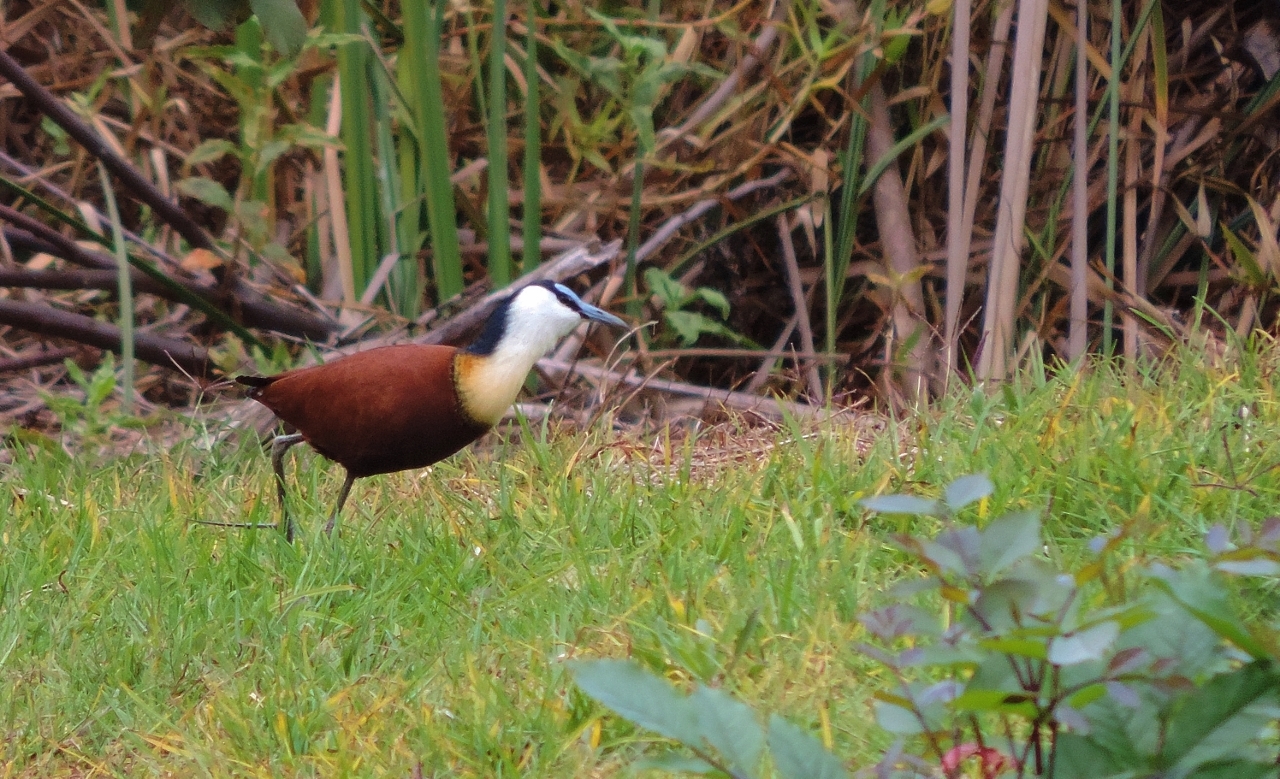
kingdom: Animalia
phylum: Chordata
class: Aves
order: Charadriiformes
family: Jacanidae
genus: Actophilornis
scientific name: Actophilornis africanus
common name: African jacana
